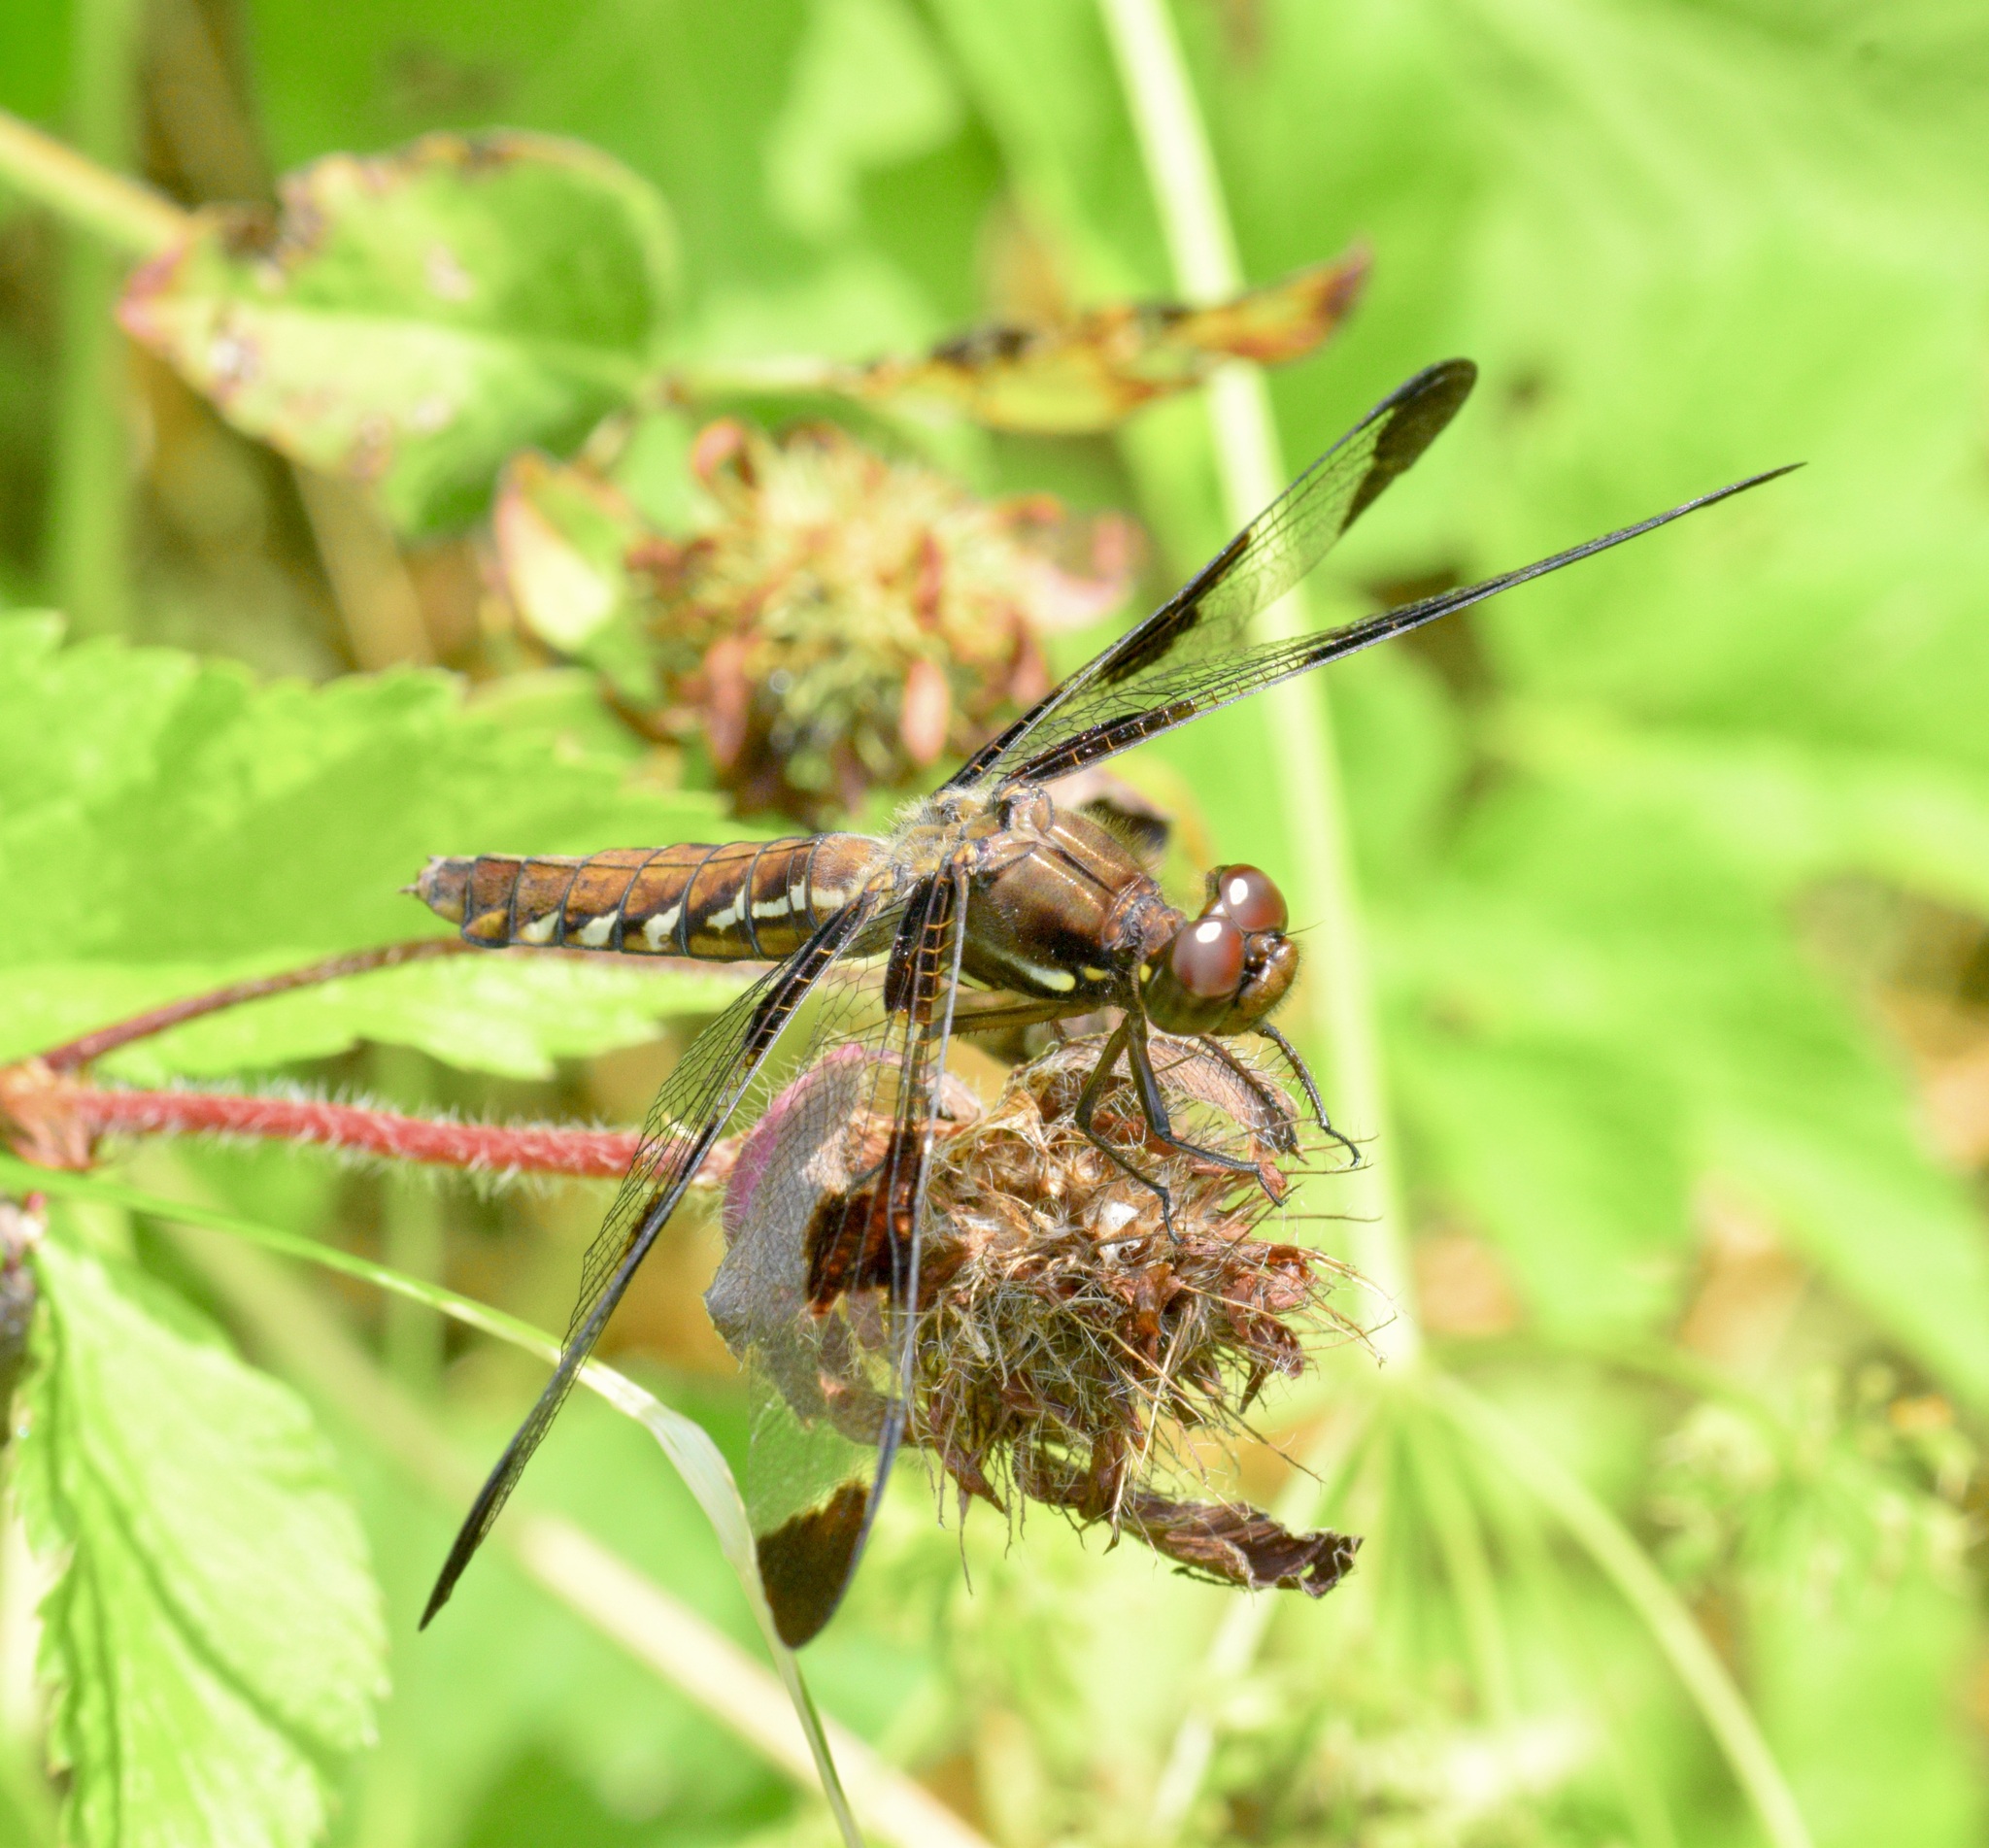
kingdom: Animalia
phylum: Arthropoda
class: Insecta
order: Odonata
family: Libellulidae
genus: Plathemis
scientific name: Plathemis lydia
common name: Common whitetail
